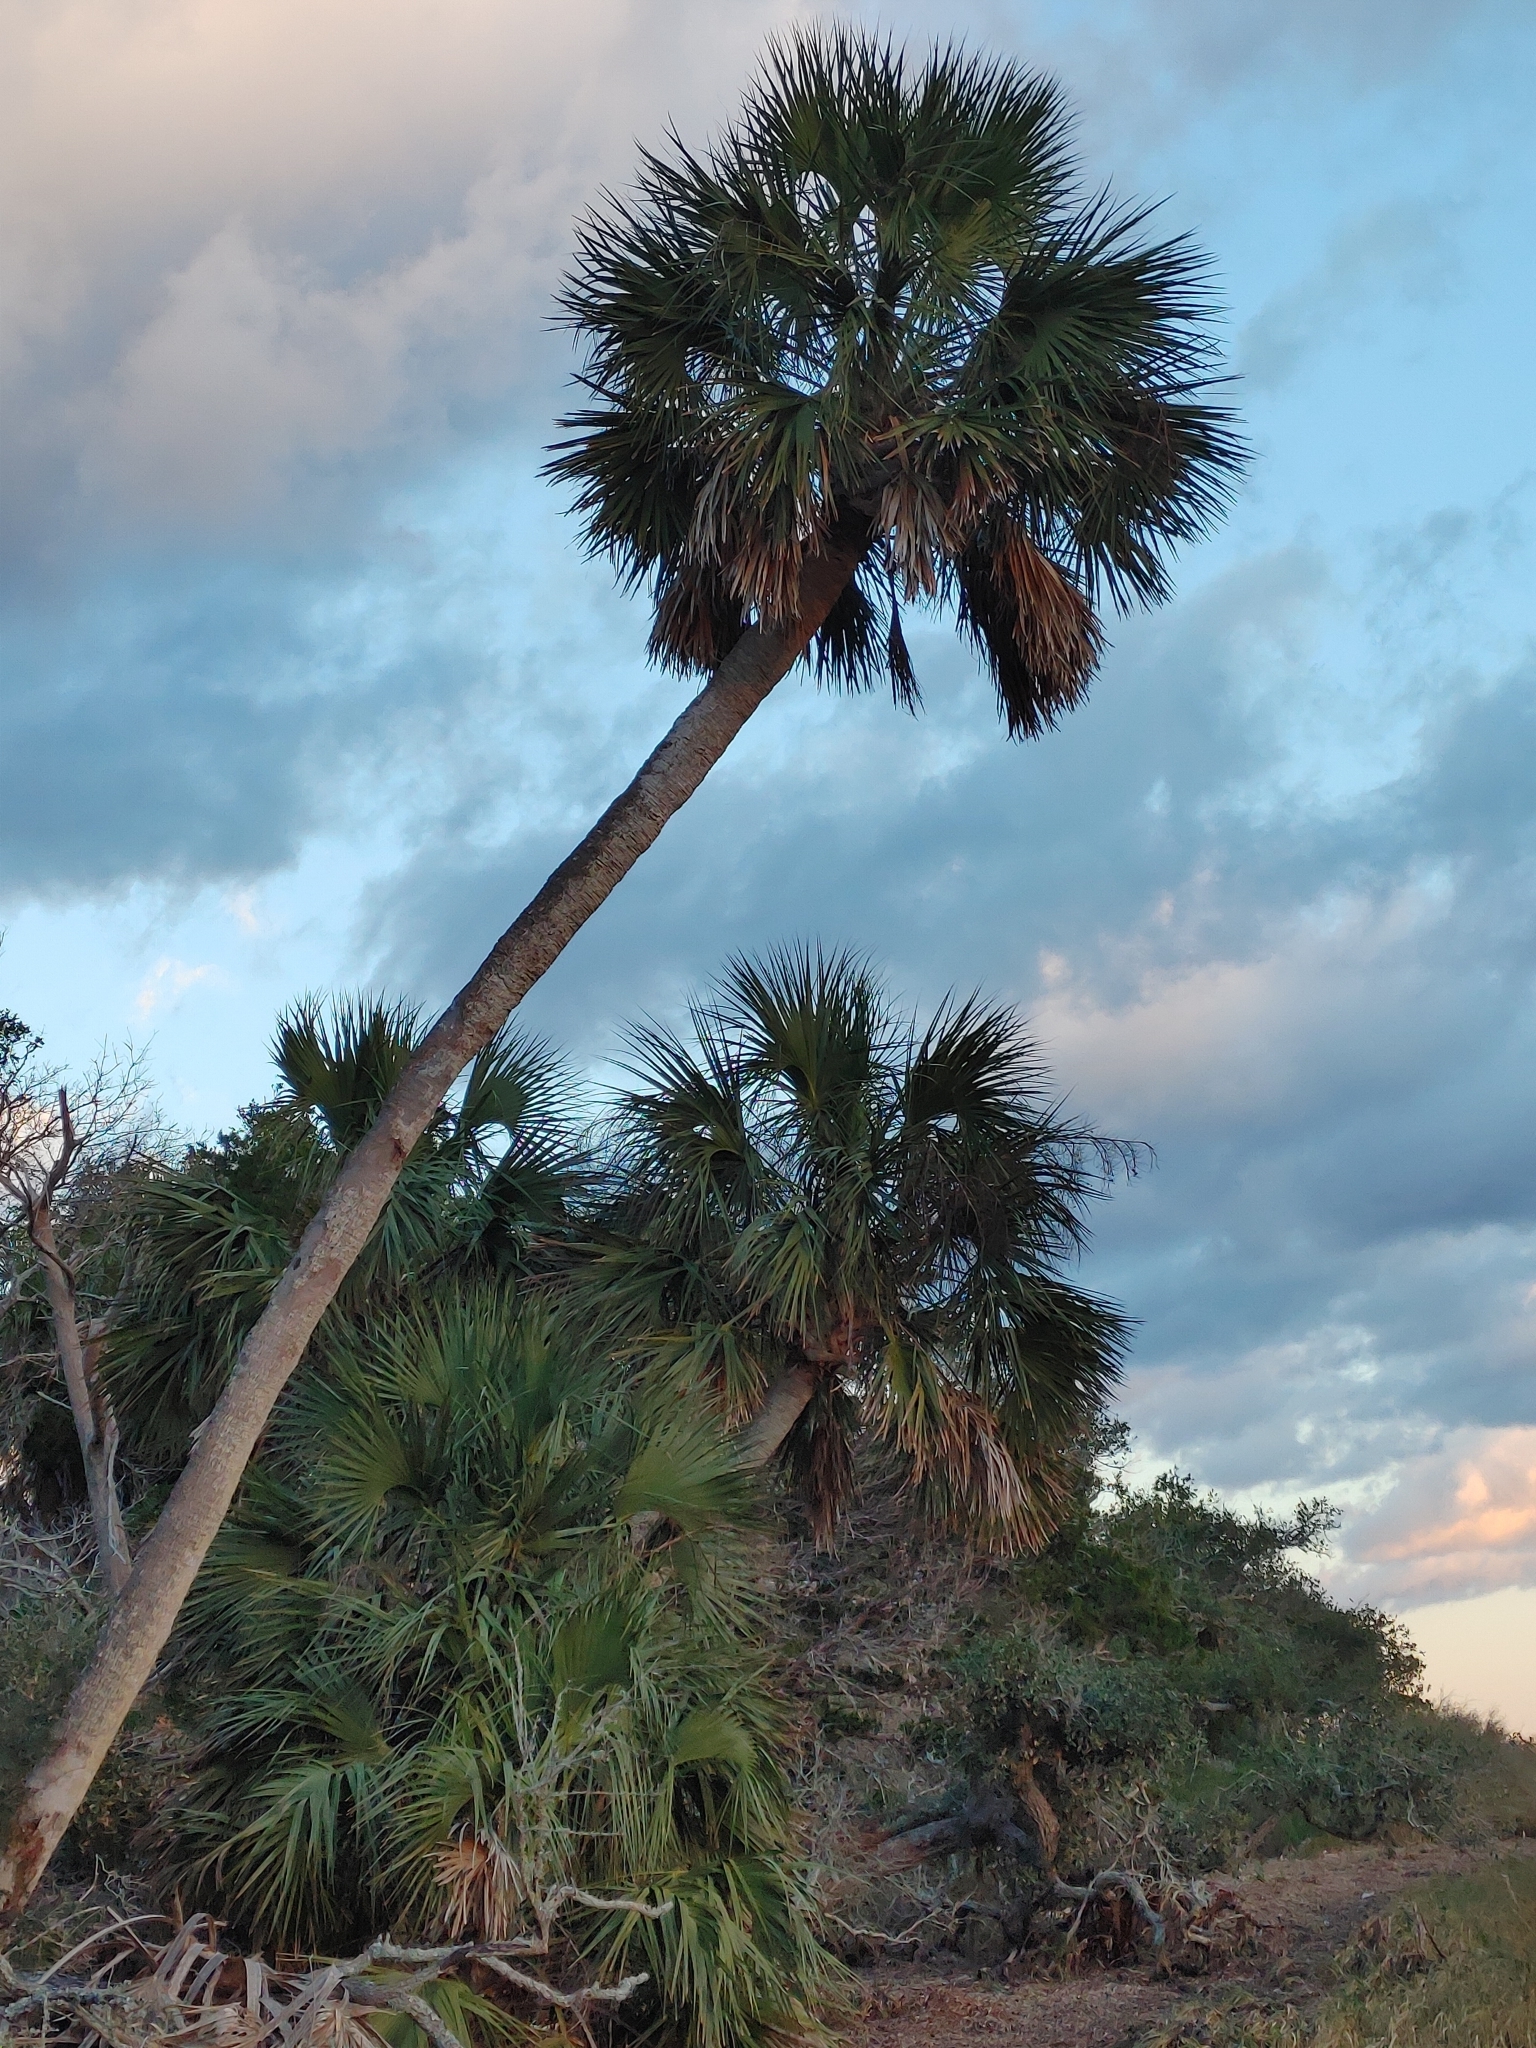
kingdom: Plantae
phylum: Tracheophyta
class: Liliopsida
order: Arecales
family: Arecaceae
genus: Sabal
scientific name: Sabal palmetto
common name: Blue palmetto
